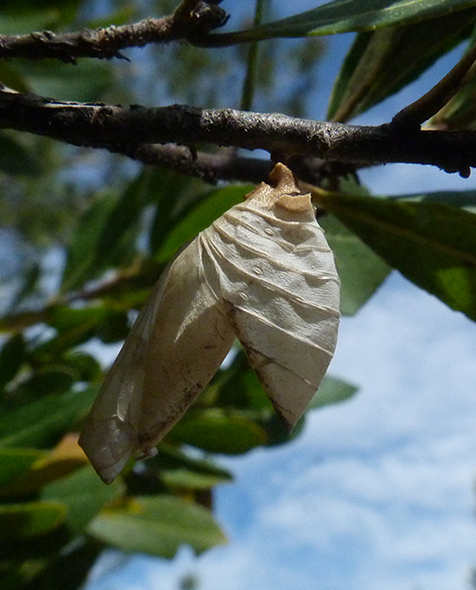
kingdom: Animalia
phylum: Arthropoda
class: Insecta
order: Lepidoptera
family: Nymphalidae
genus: Charaxes
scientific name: Charaxes jasius
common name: Two tailed pasha
